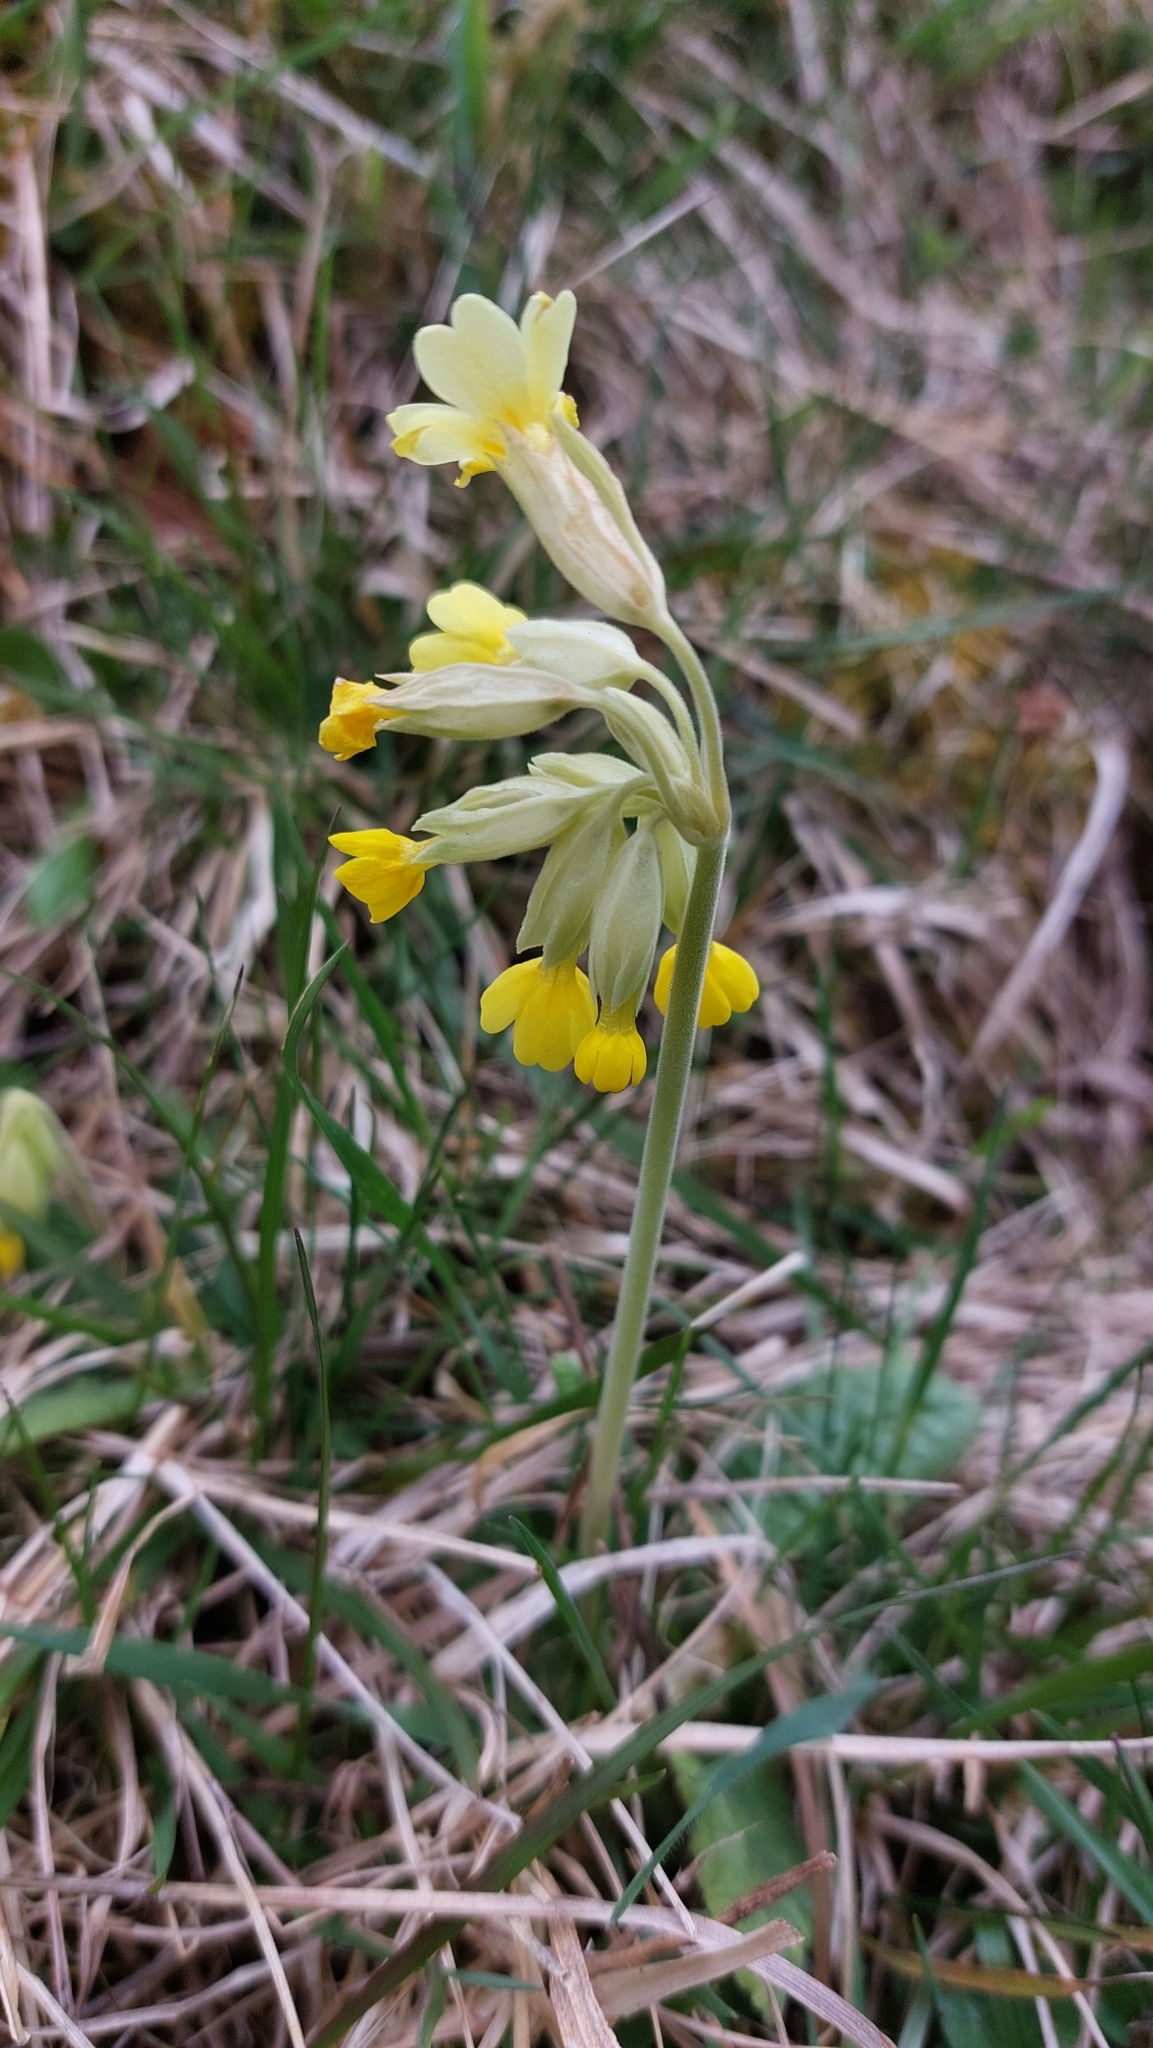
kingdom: Plantae
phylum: Tracheophyta
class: Magnoliopsida
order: Ericales
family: Primulaceae
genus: Primula
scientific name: Primula veris
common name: Cowslip
